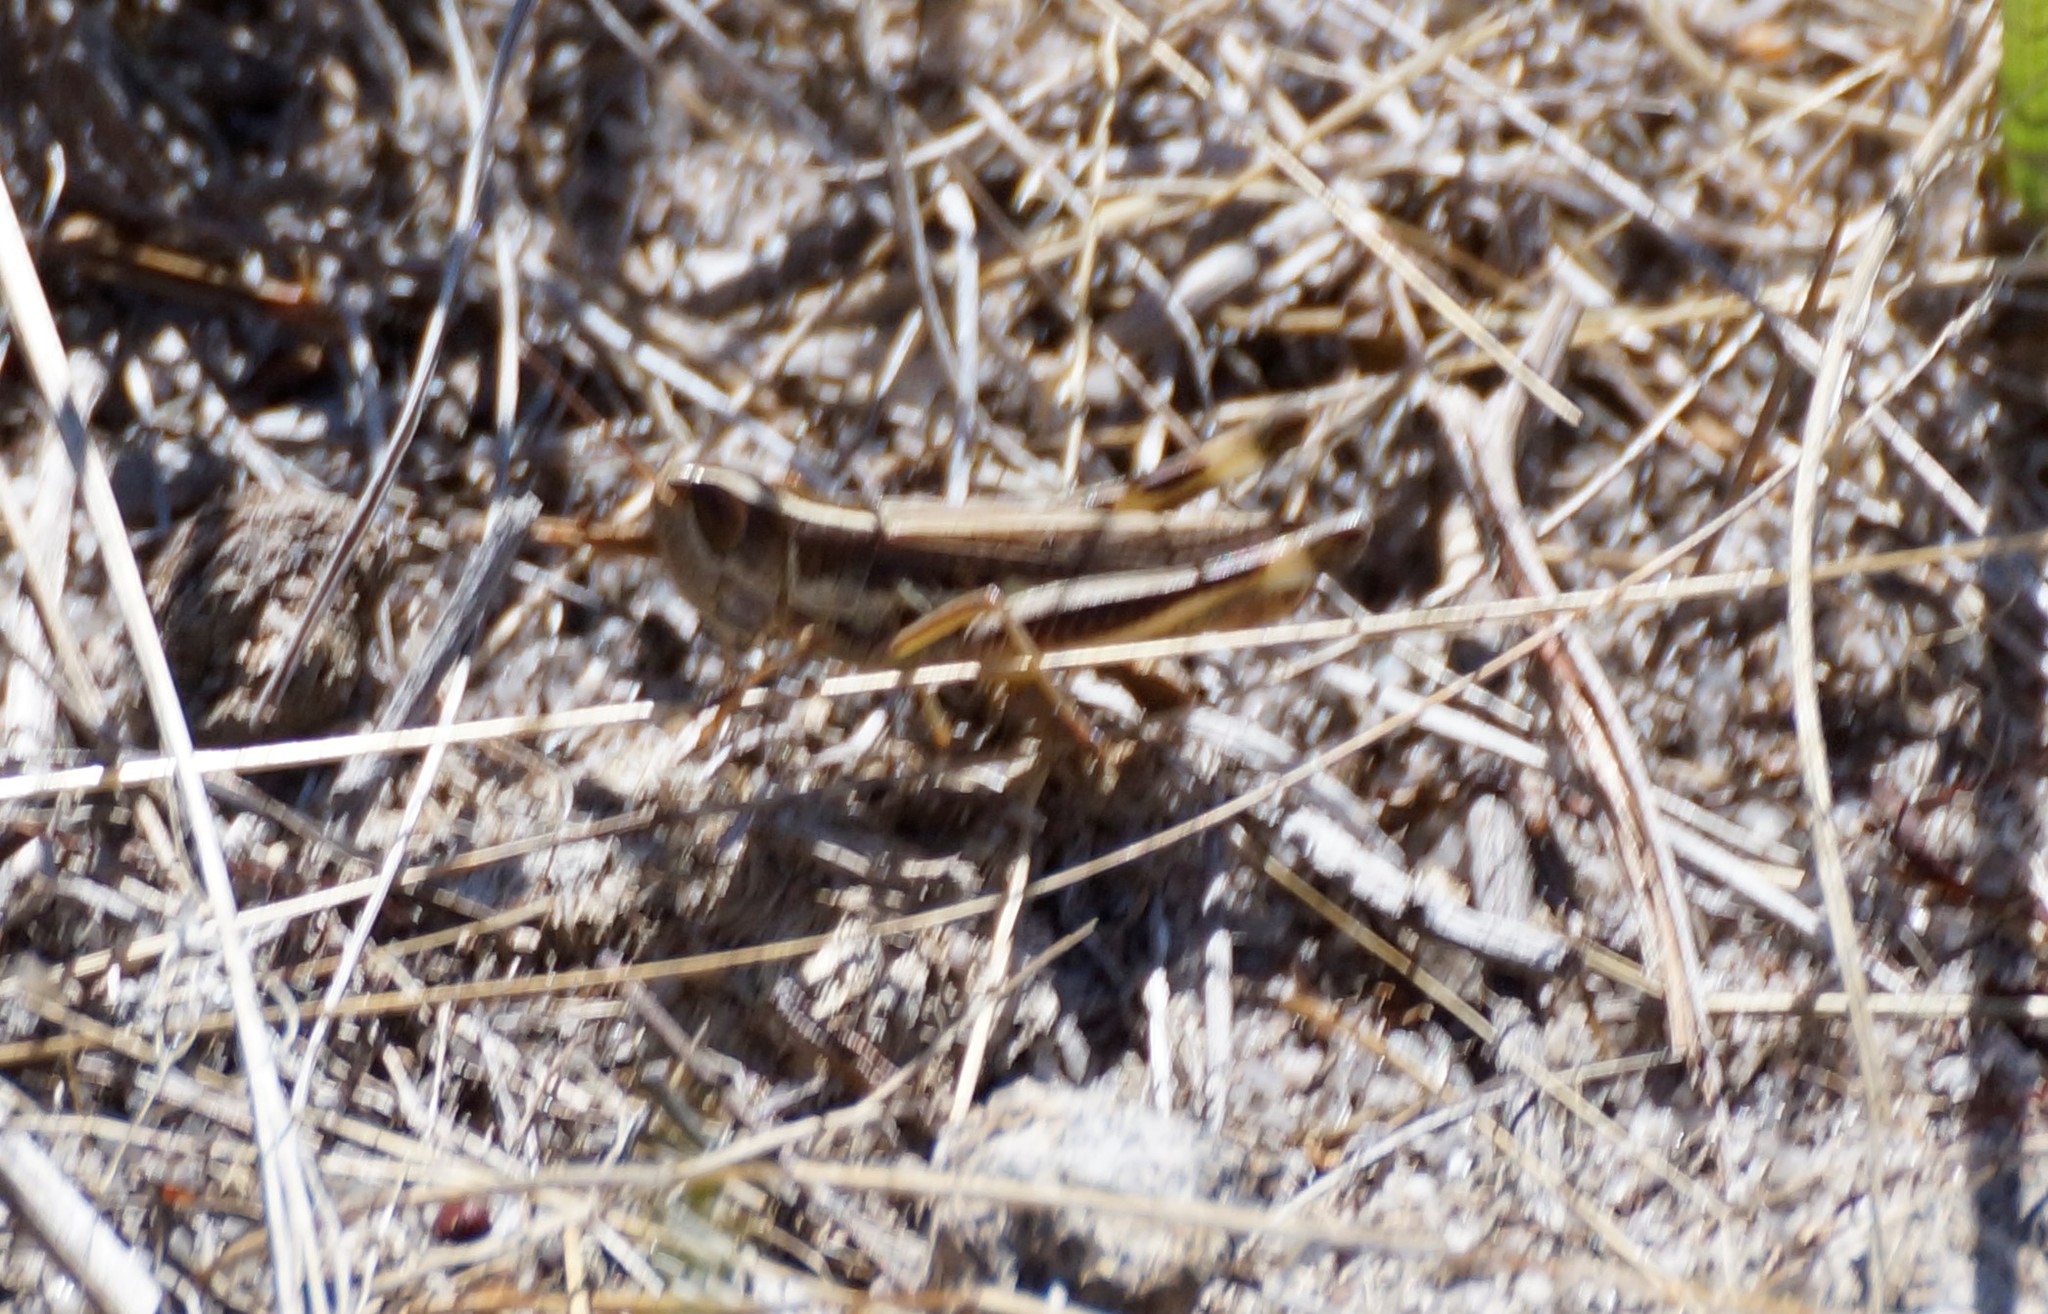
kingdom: Animalia
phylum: Arthropoda
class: Insecta
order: Orthoptera
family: Acrididae
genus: Macrotona
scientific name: Macrotona securiformis
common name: Inland macrotona
